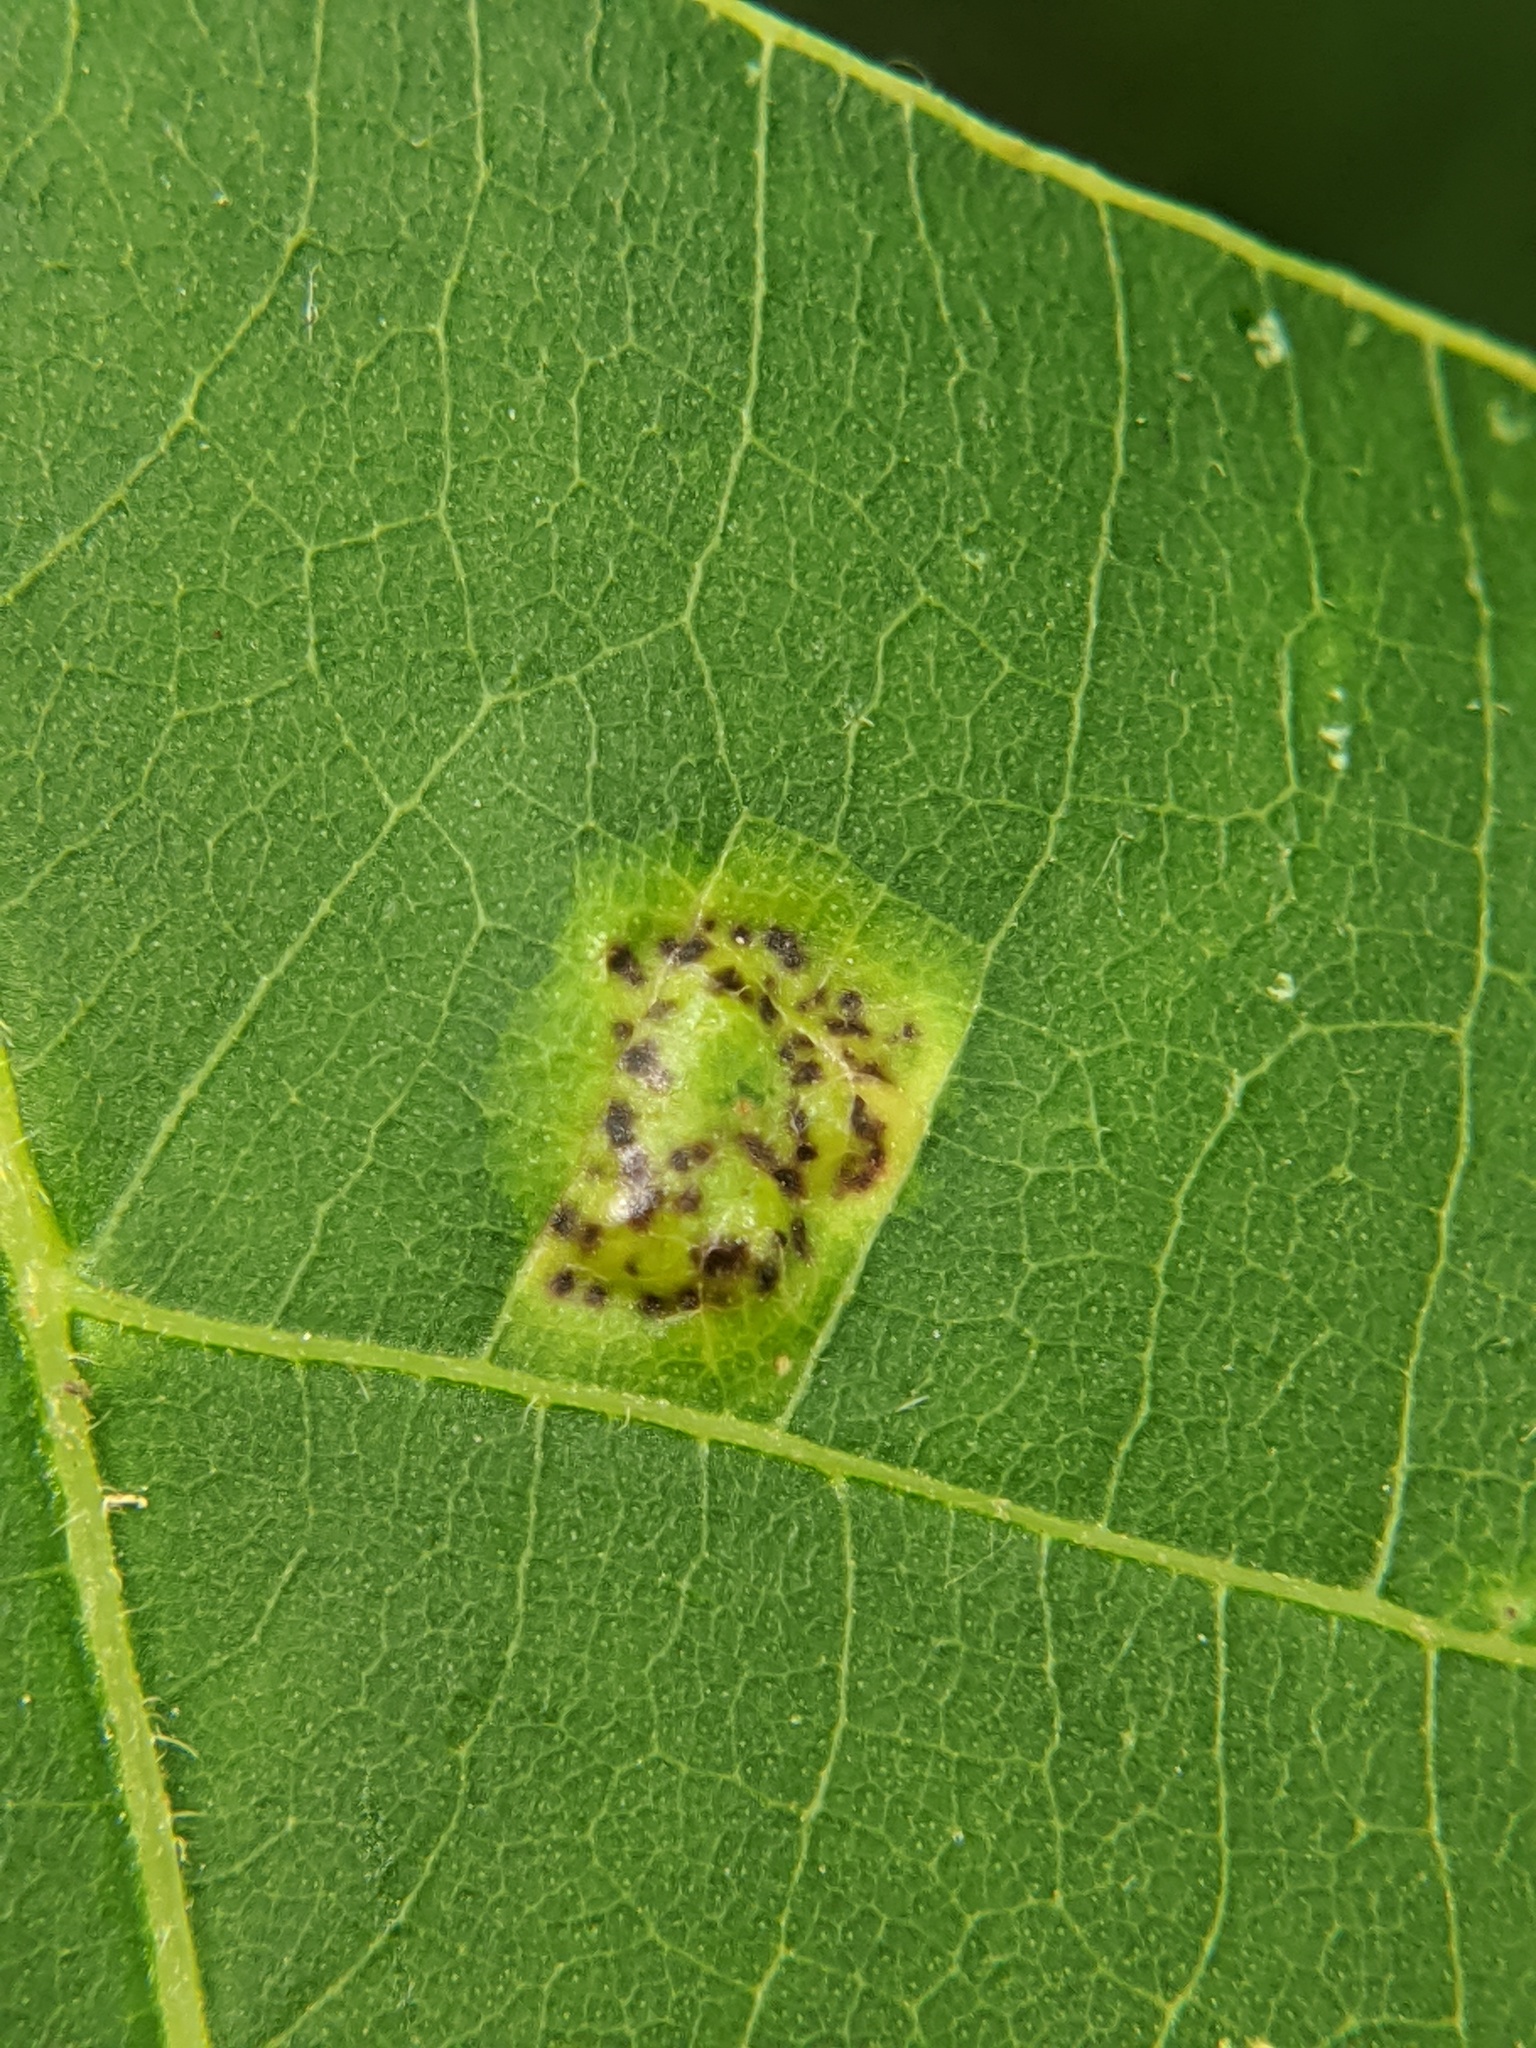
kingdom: Animalia
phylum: Arthropoda
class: Insecta
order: Diptera
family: Cecidomyiidae
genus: Gliaspilota
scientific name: Gliaspilota glutinosa
